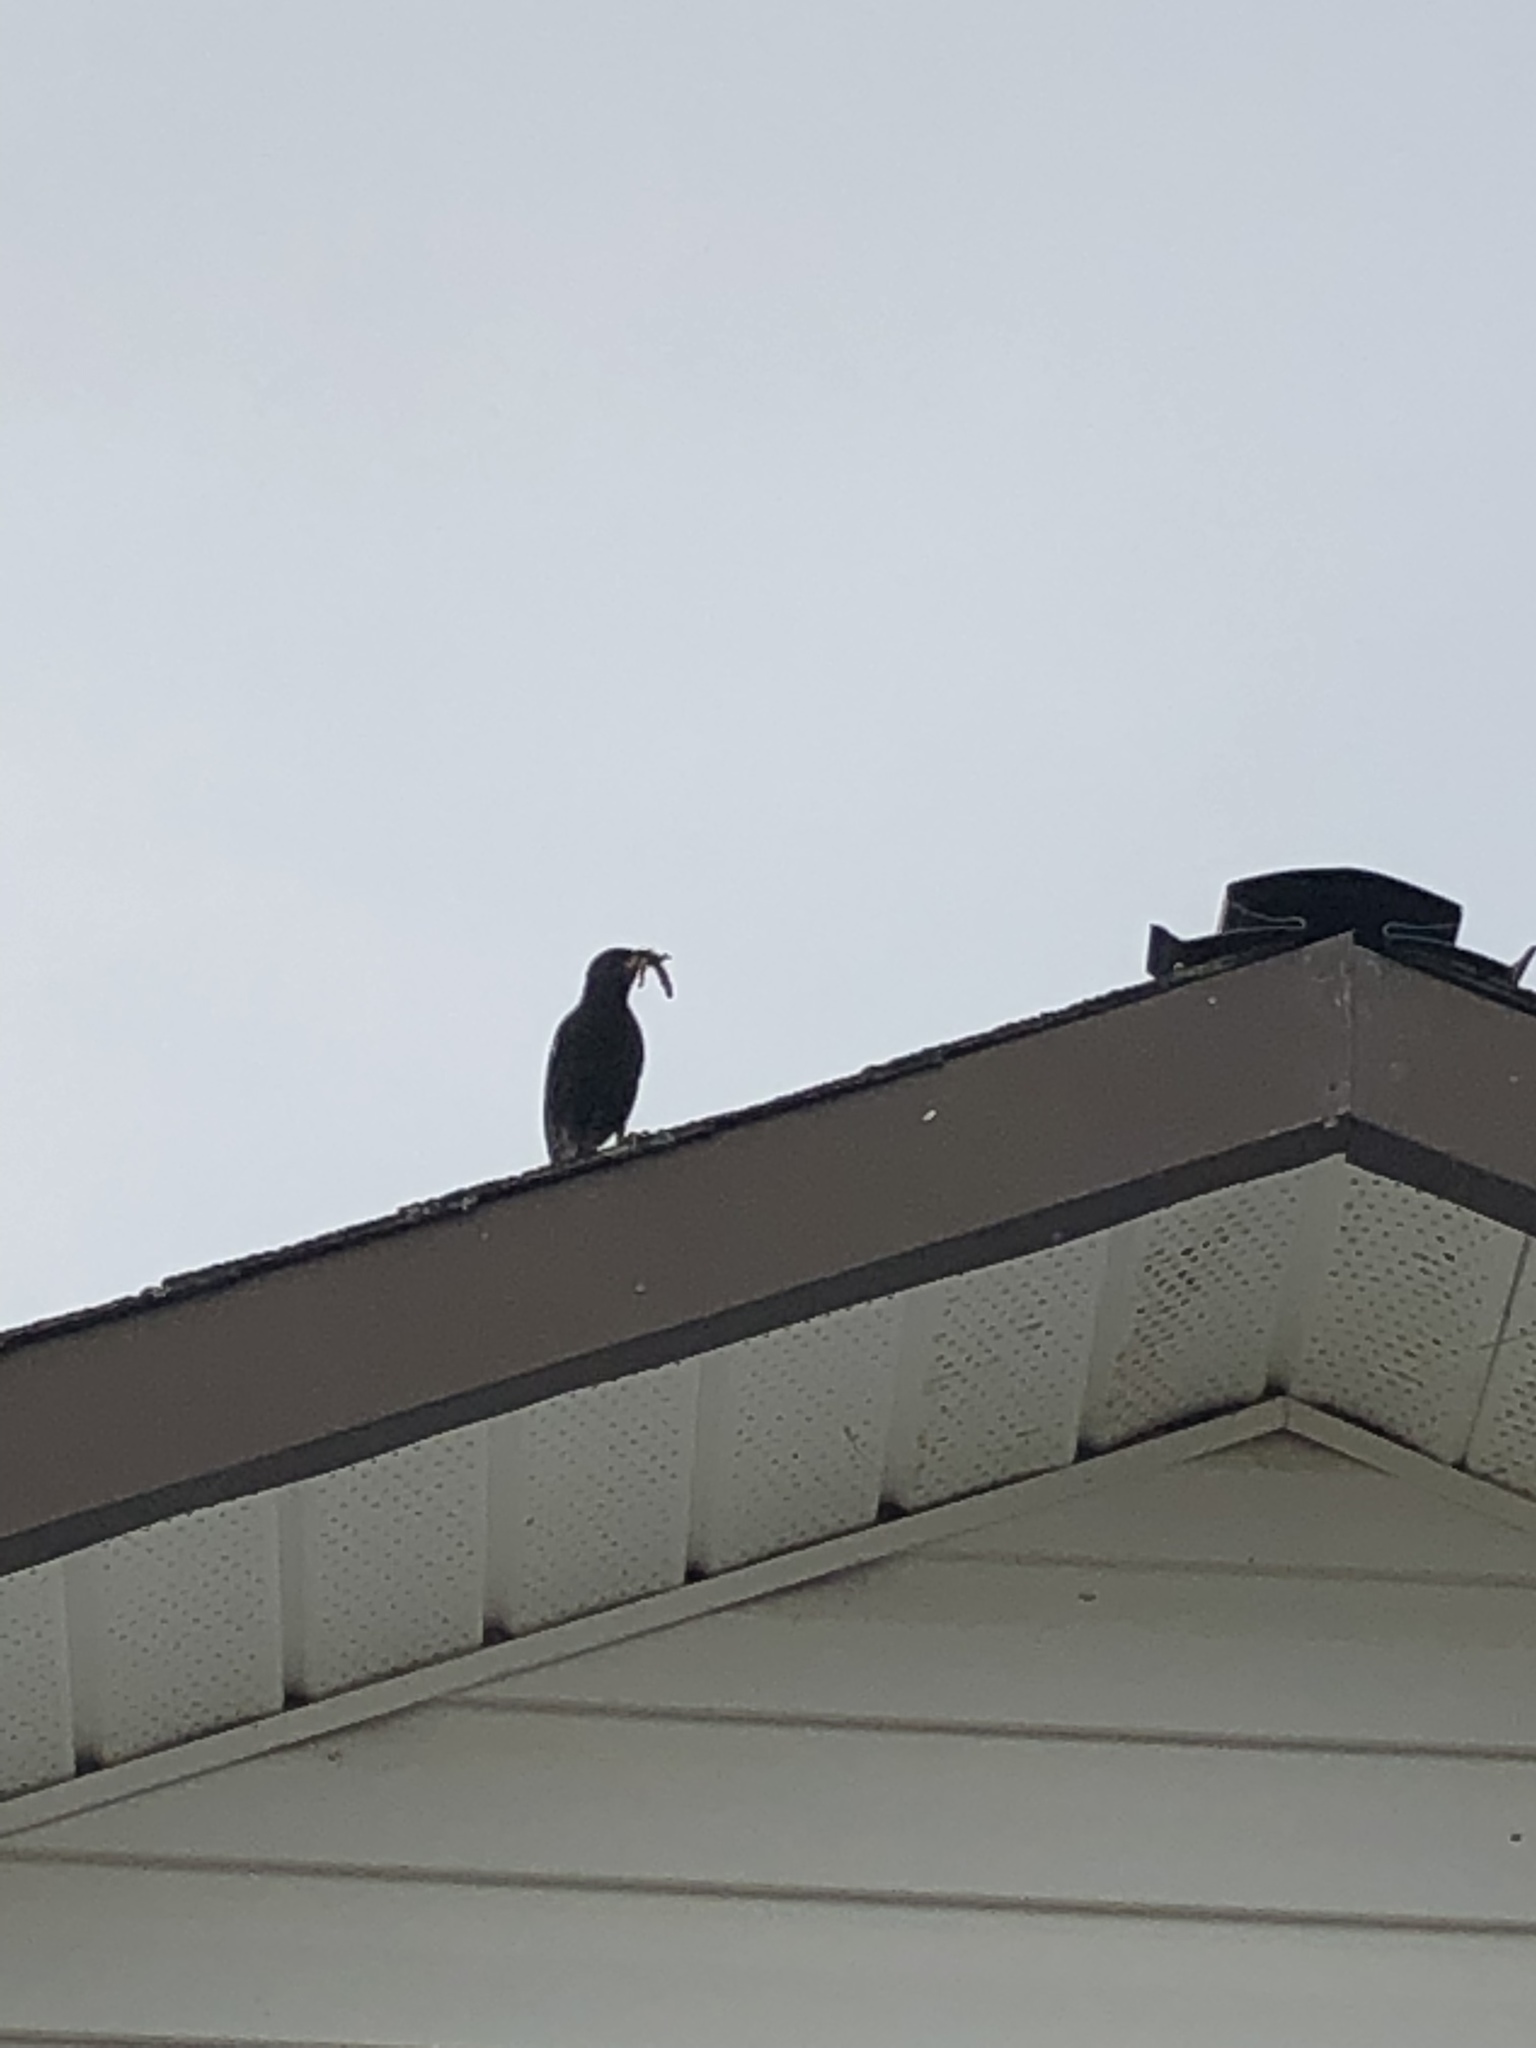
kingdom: Animalia
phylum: Chordata
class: Aves
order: Passeriformes
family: Sturnidae
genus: Sturnus
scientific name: Sturnus vulgaris
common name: Common starling
